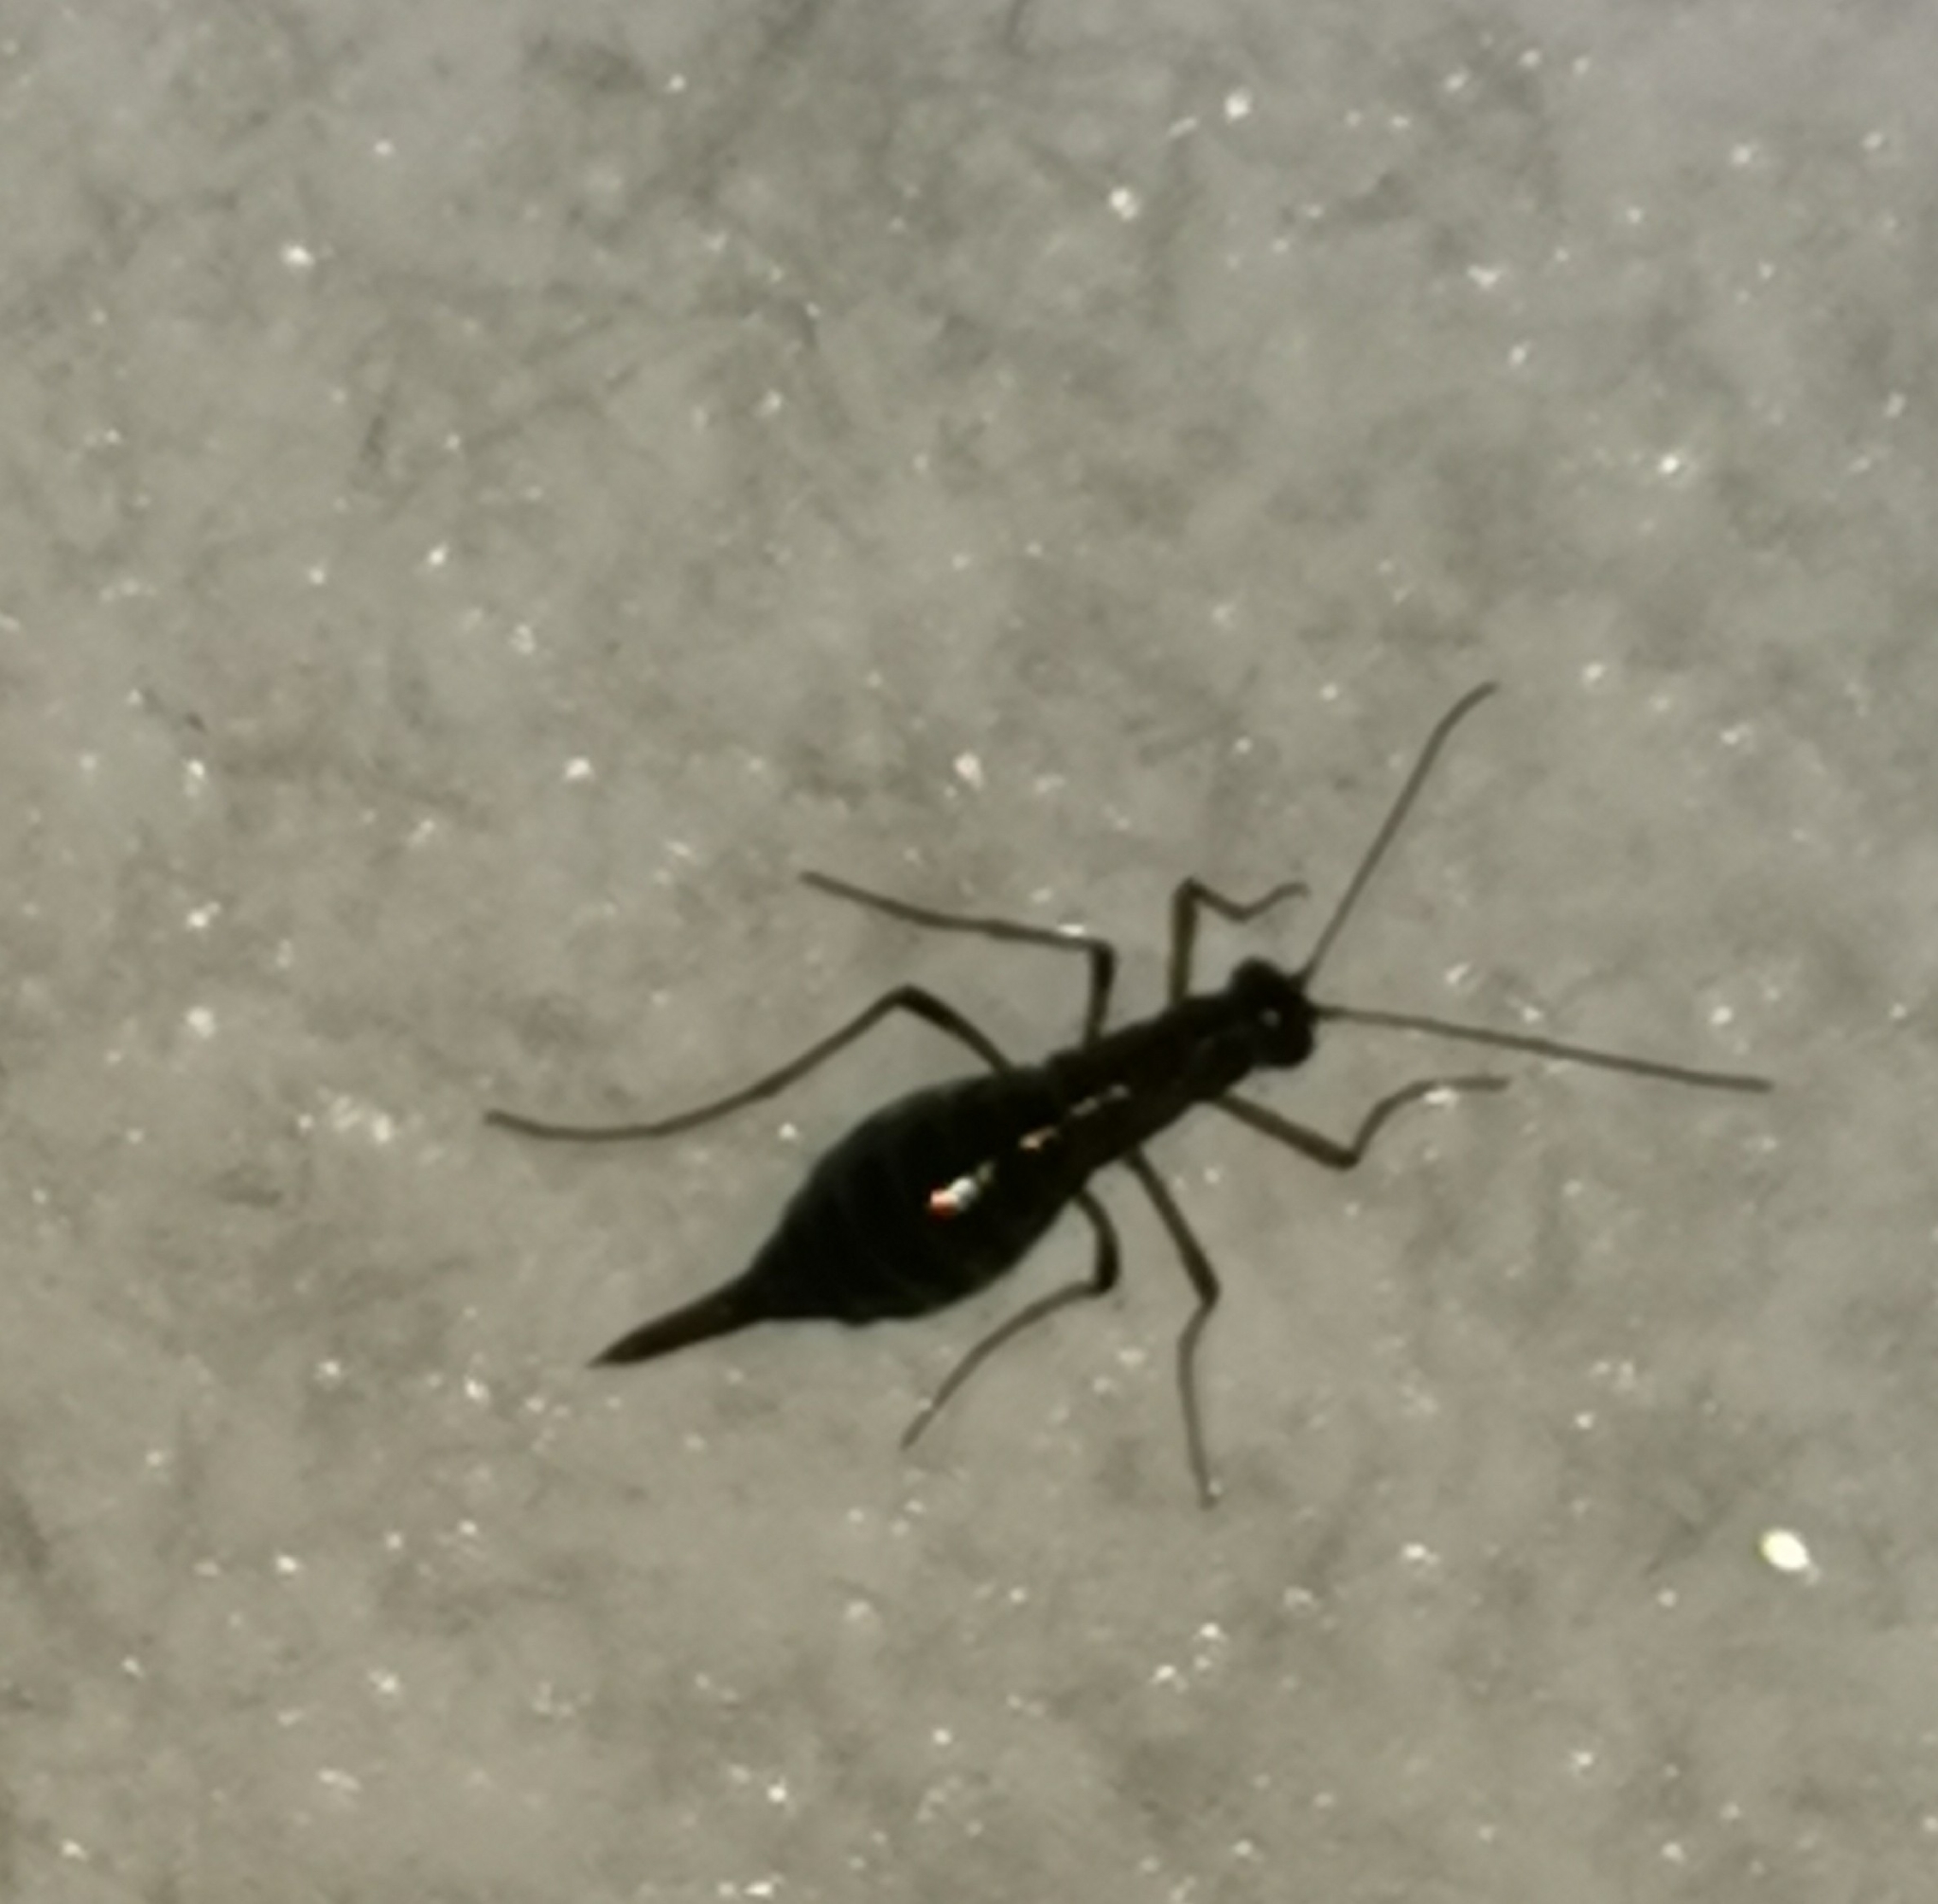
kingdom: Animalia
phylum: Arthropoda
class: Insecta
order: Mecoptera
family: Boreidae
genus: Boreus
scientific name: Boreus westwoodi
